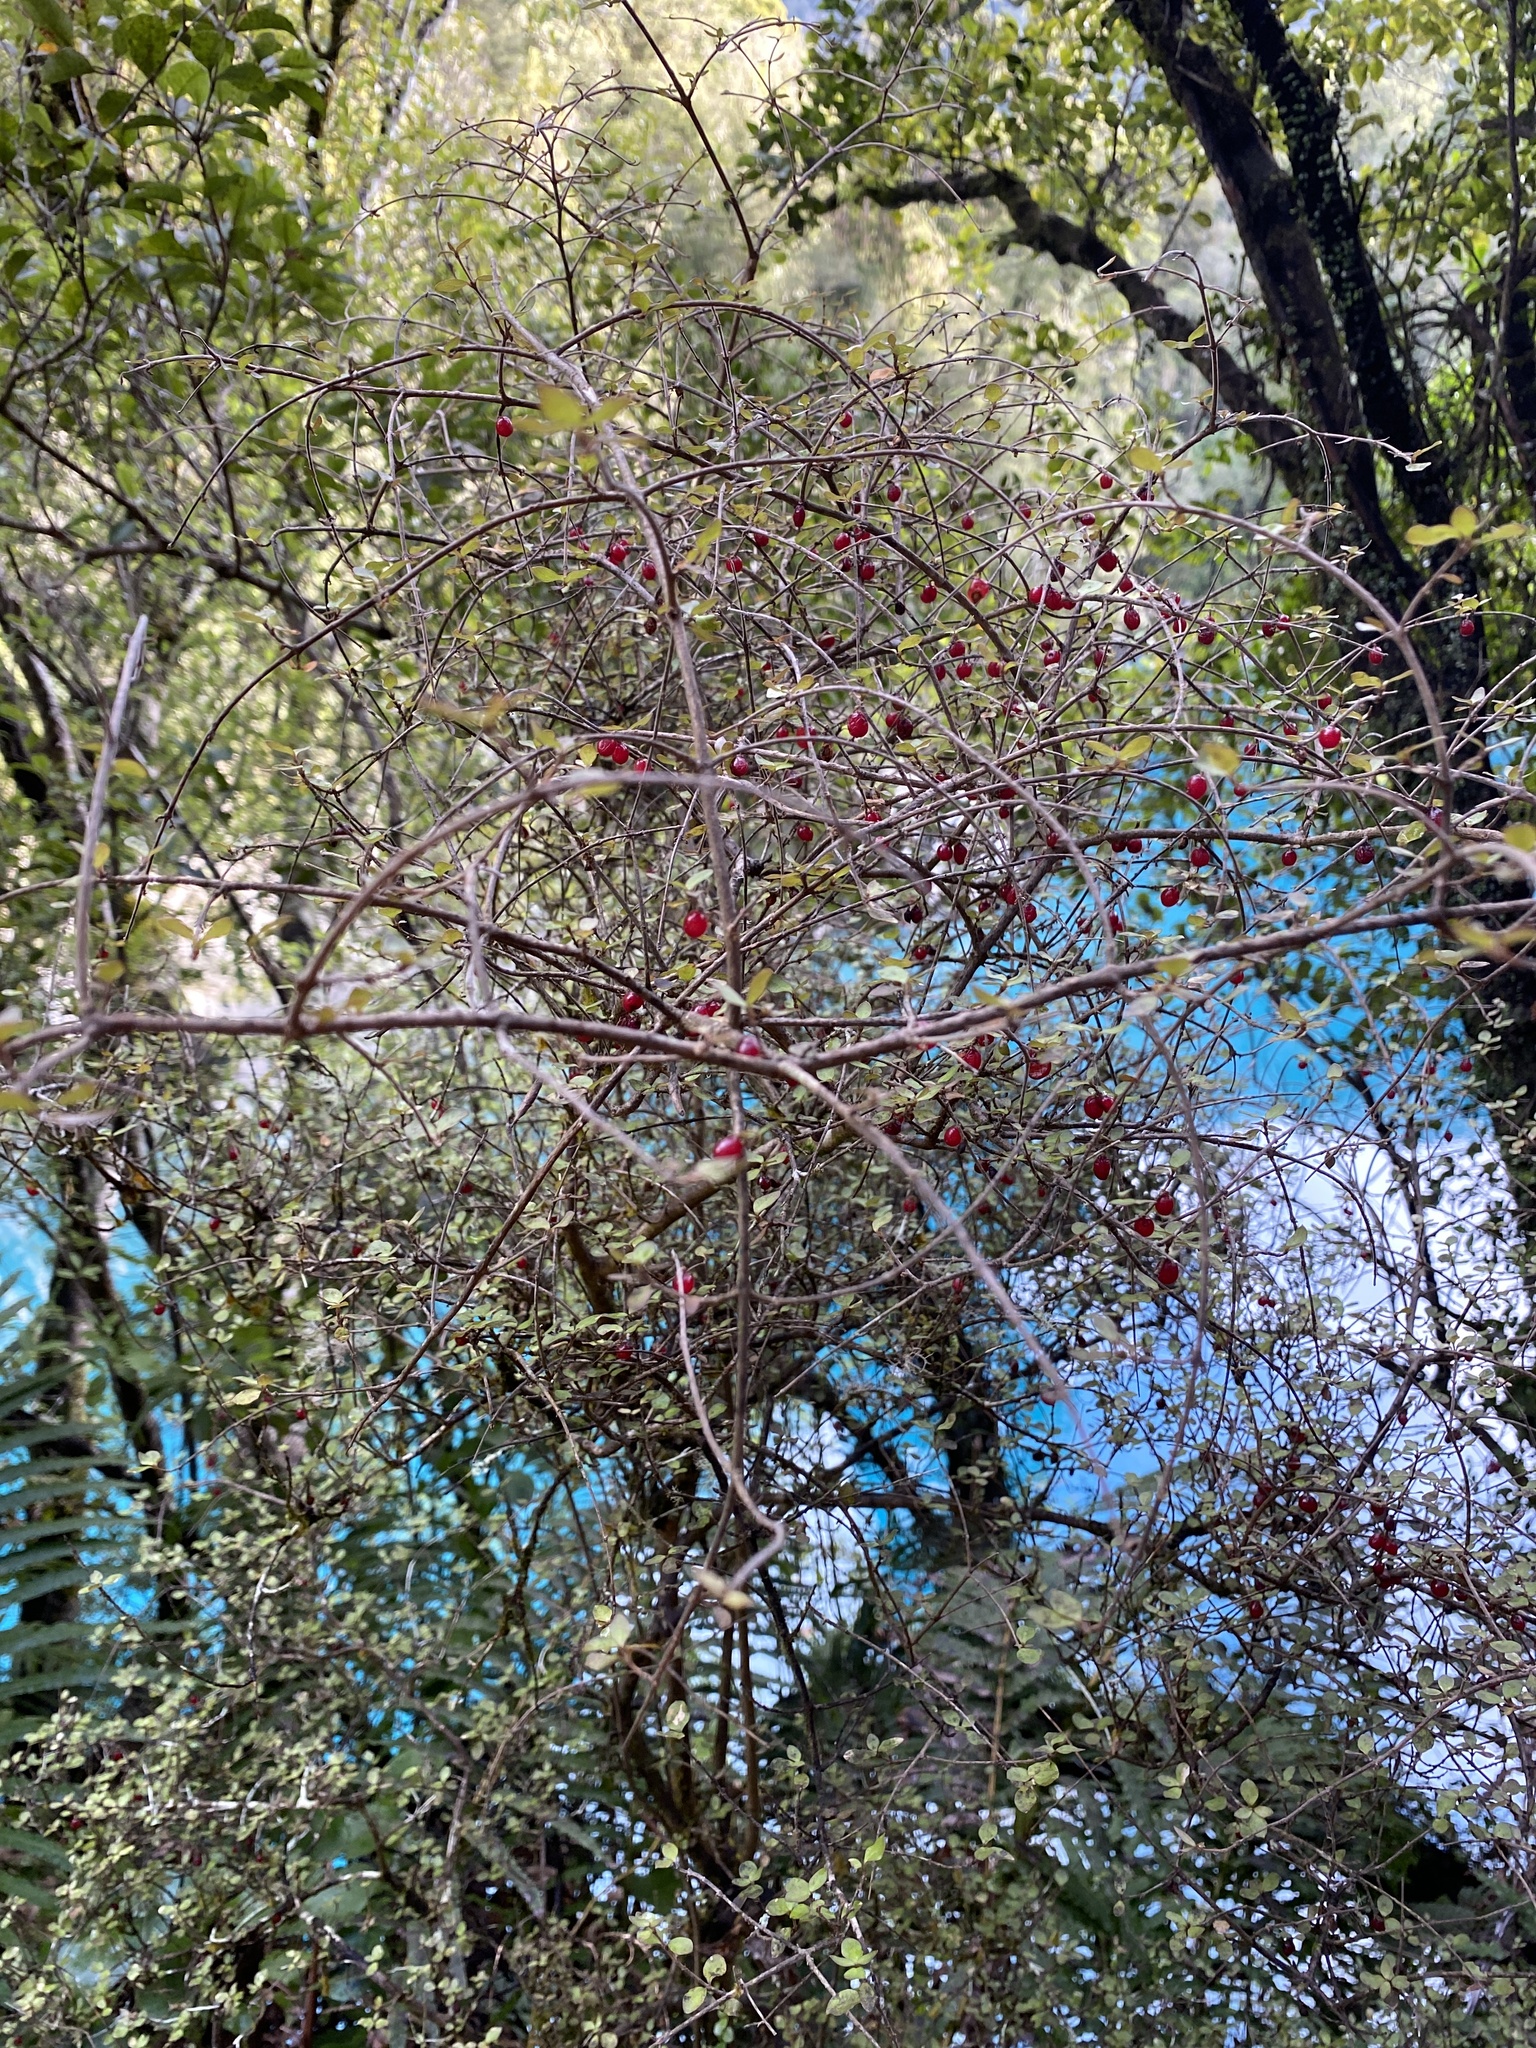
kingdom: Plantae
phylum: Tracheophyta
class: Magnoliopsida
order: Gentianales
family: Rubiaceae
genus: Coprosma
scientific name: Coprosma rhamnoides
